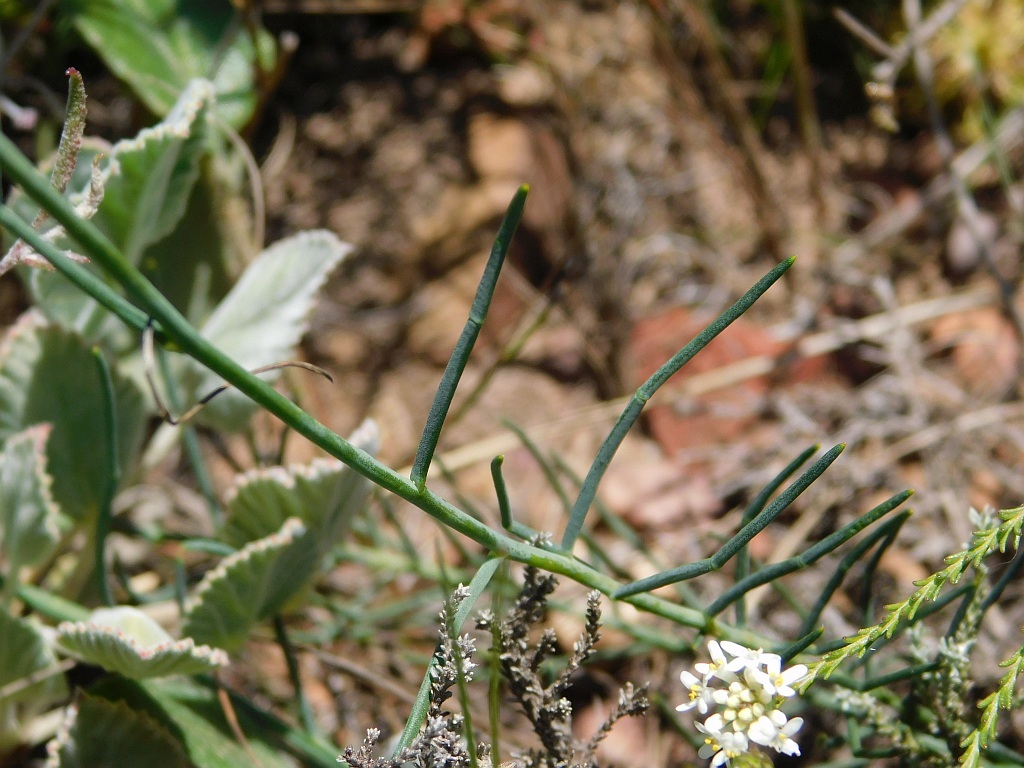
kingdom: Plantae
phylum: Tracheophyta
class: Magnoliopsida
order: Fabales
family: Fabaceae
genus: Lebeckia
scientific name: Lebeckia pauciflora
